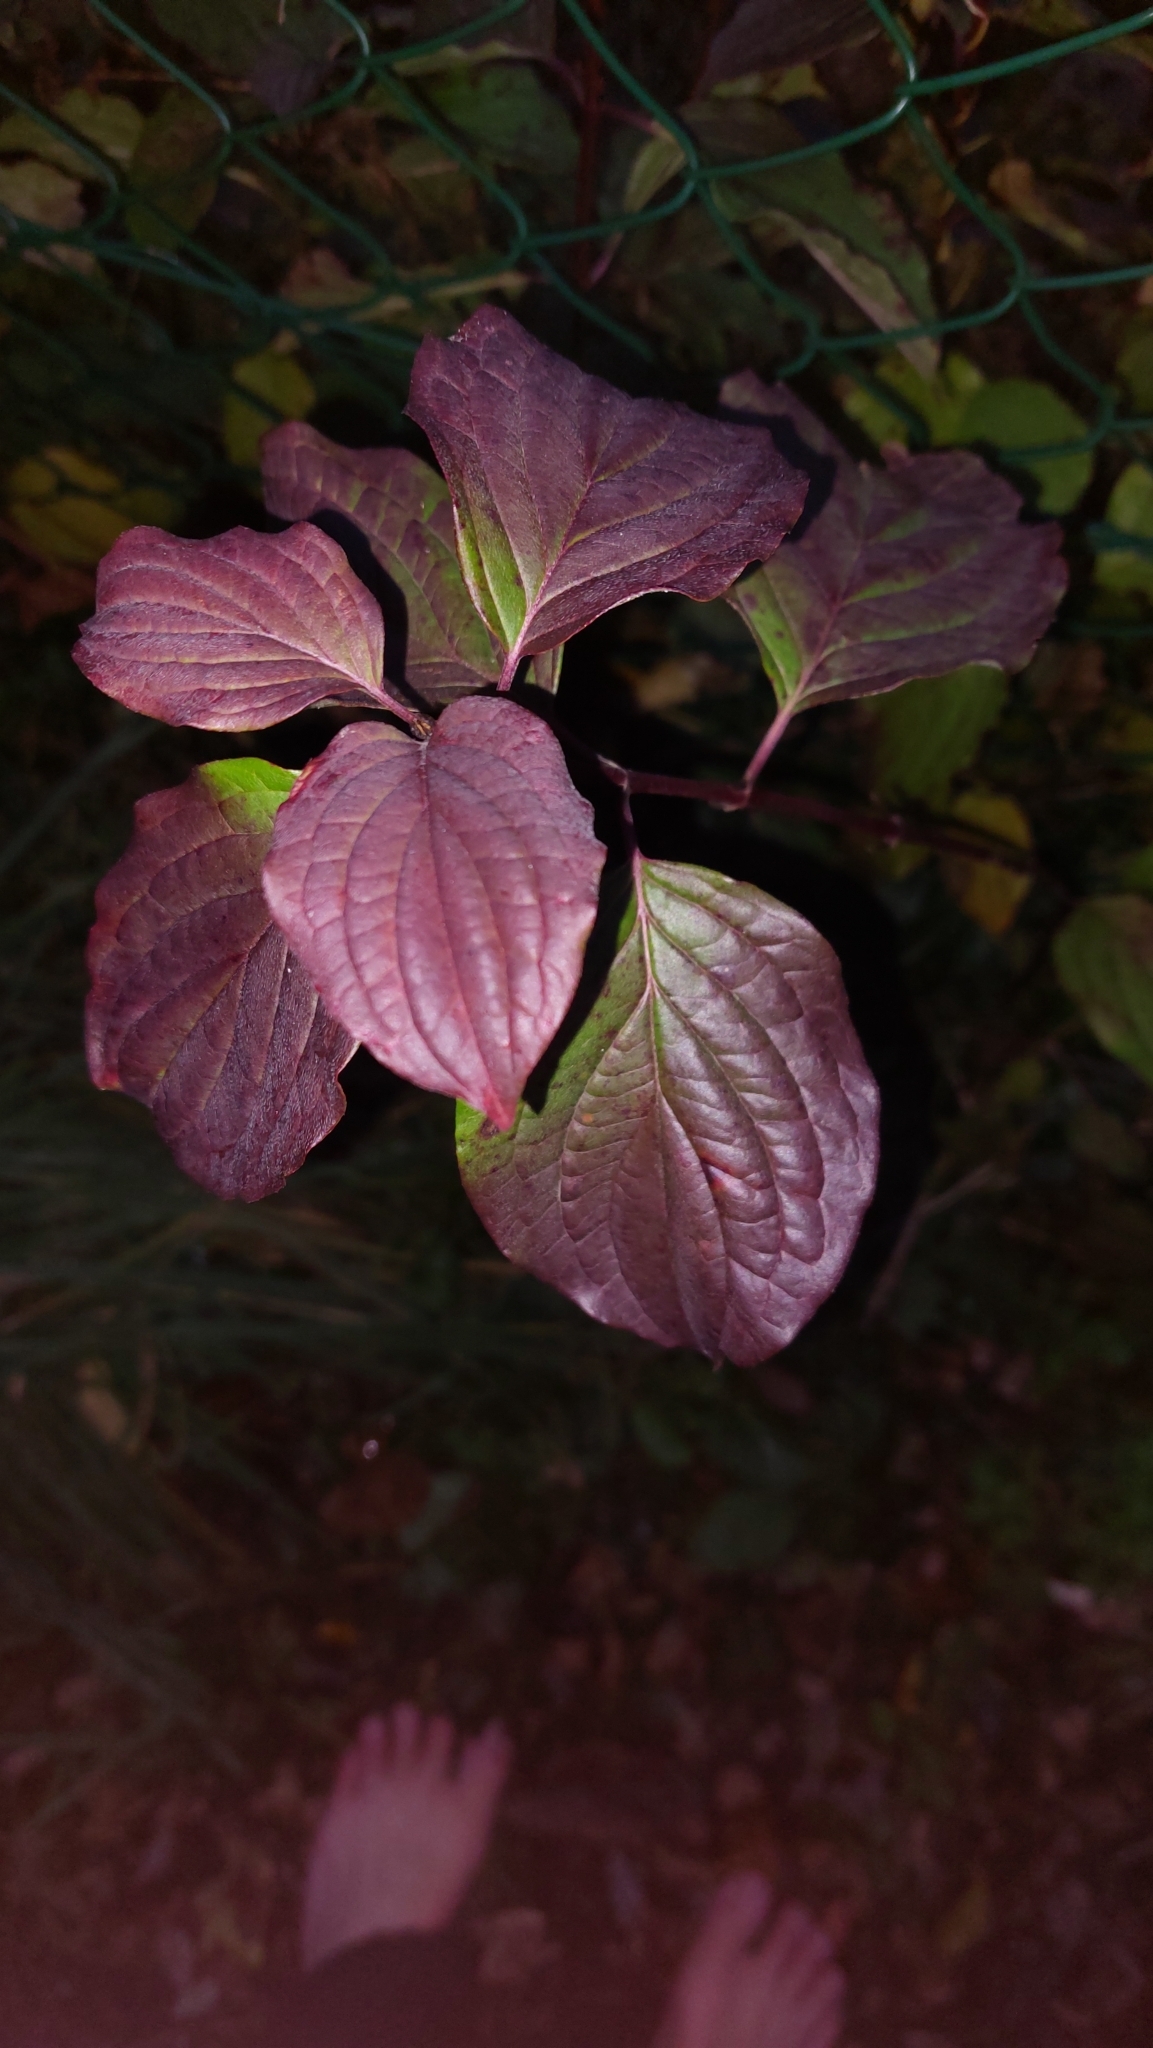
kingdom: Plantae
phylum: Tracheophyta
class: Magnoliopsida
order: Cornales
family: Cornaceae
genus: Cornus
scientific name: Cornus sanguinea
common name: Dogwood
